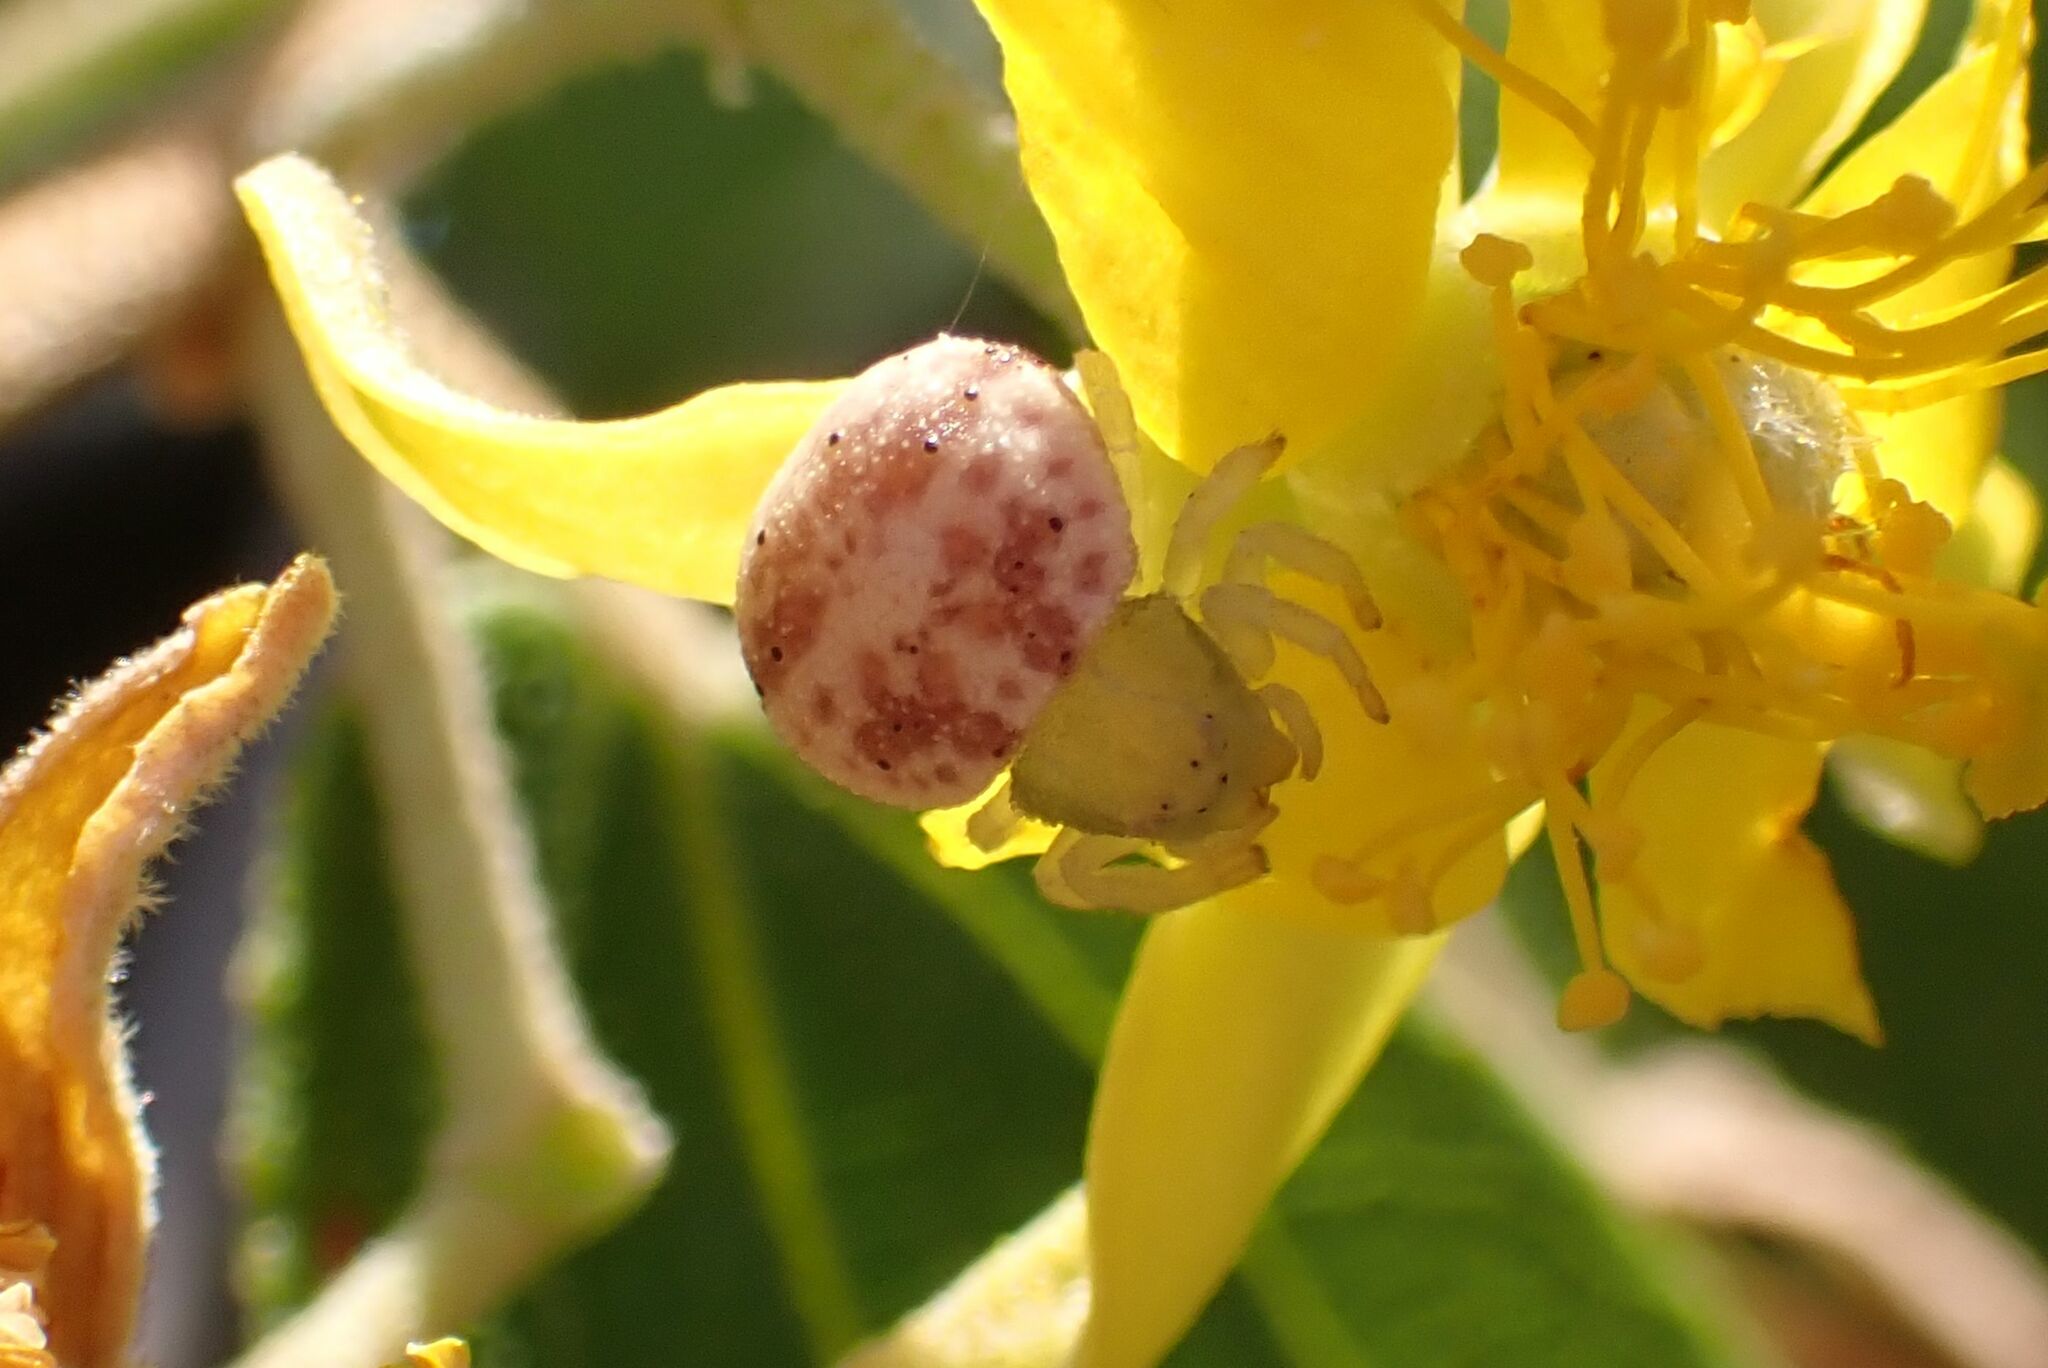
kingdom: Animalia
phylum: Arthropoda
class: Arachnida
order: Araneae
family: Thomisidae
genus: Thomisops
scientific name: Thomisops granulatus
